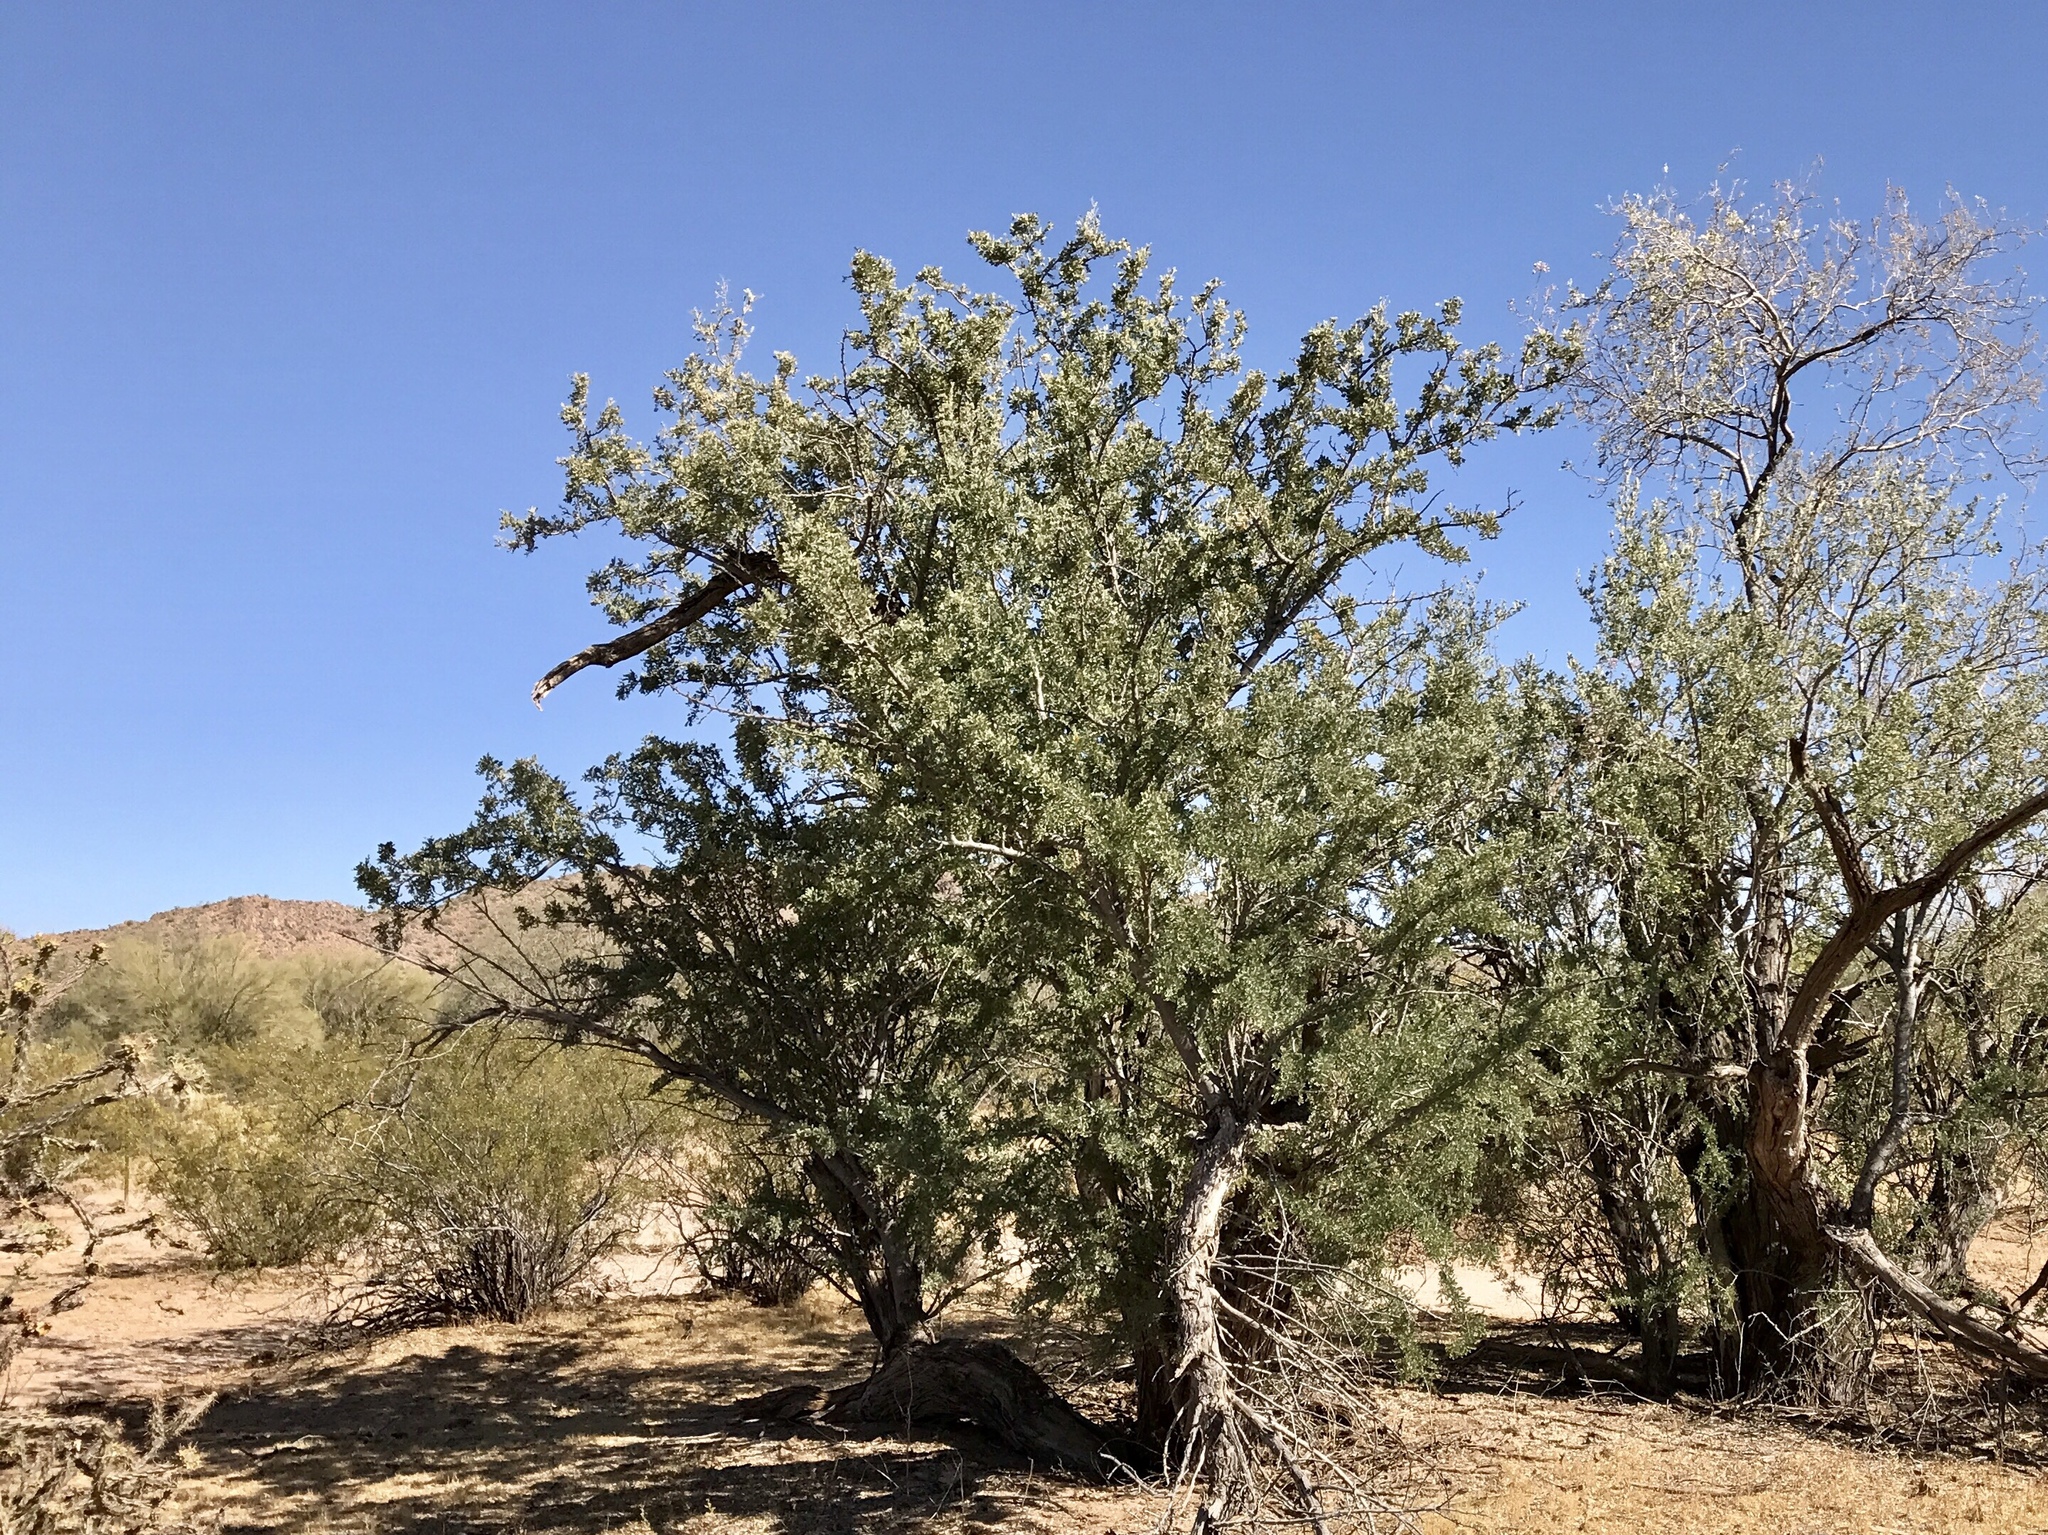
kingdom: Plantae
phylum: Tracheophyta
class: Magnoliopsida
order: Fabales
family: Fabaceae
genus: Olneya
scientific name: Olneya tesota
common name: Desert ironwood
